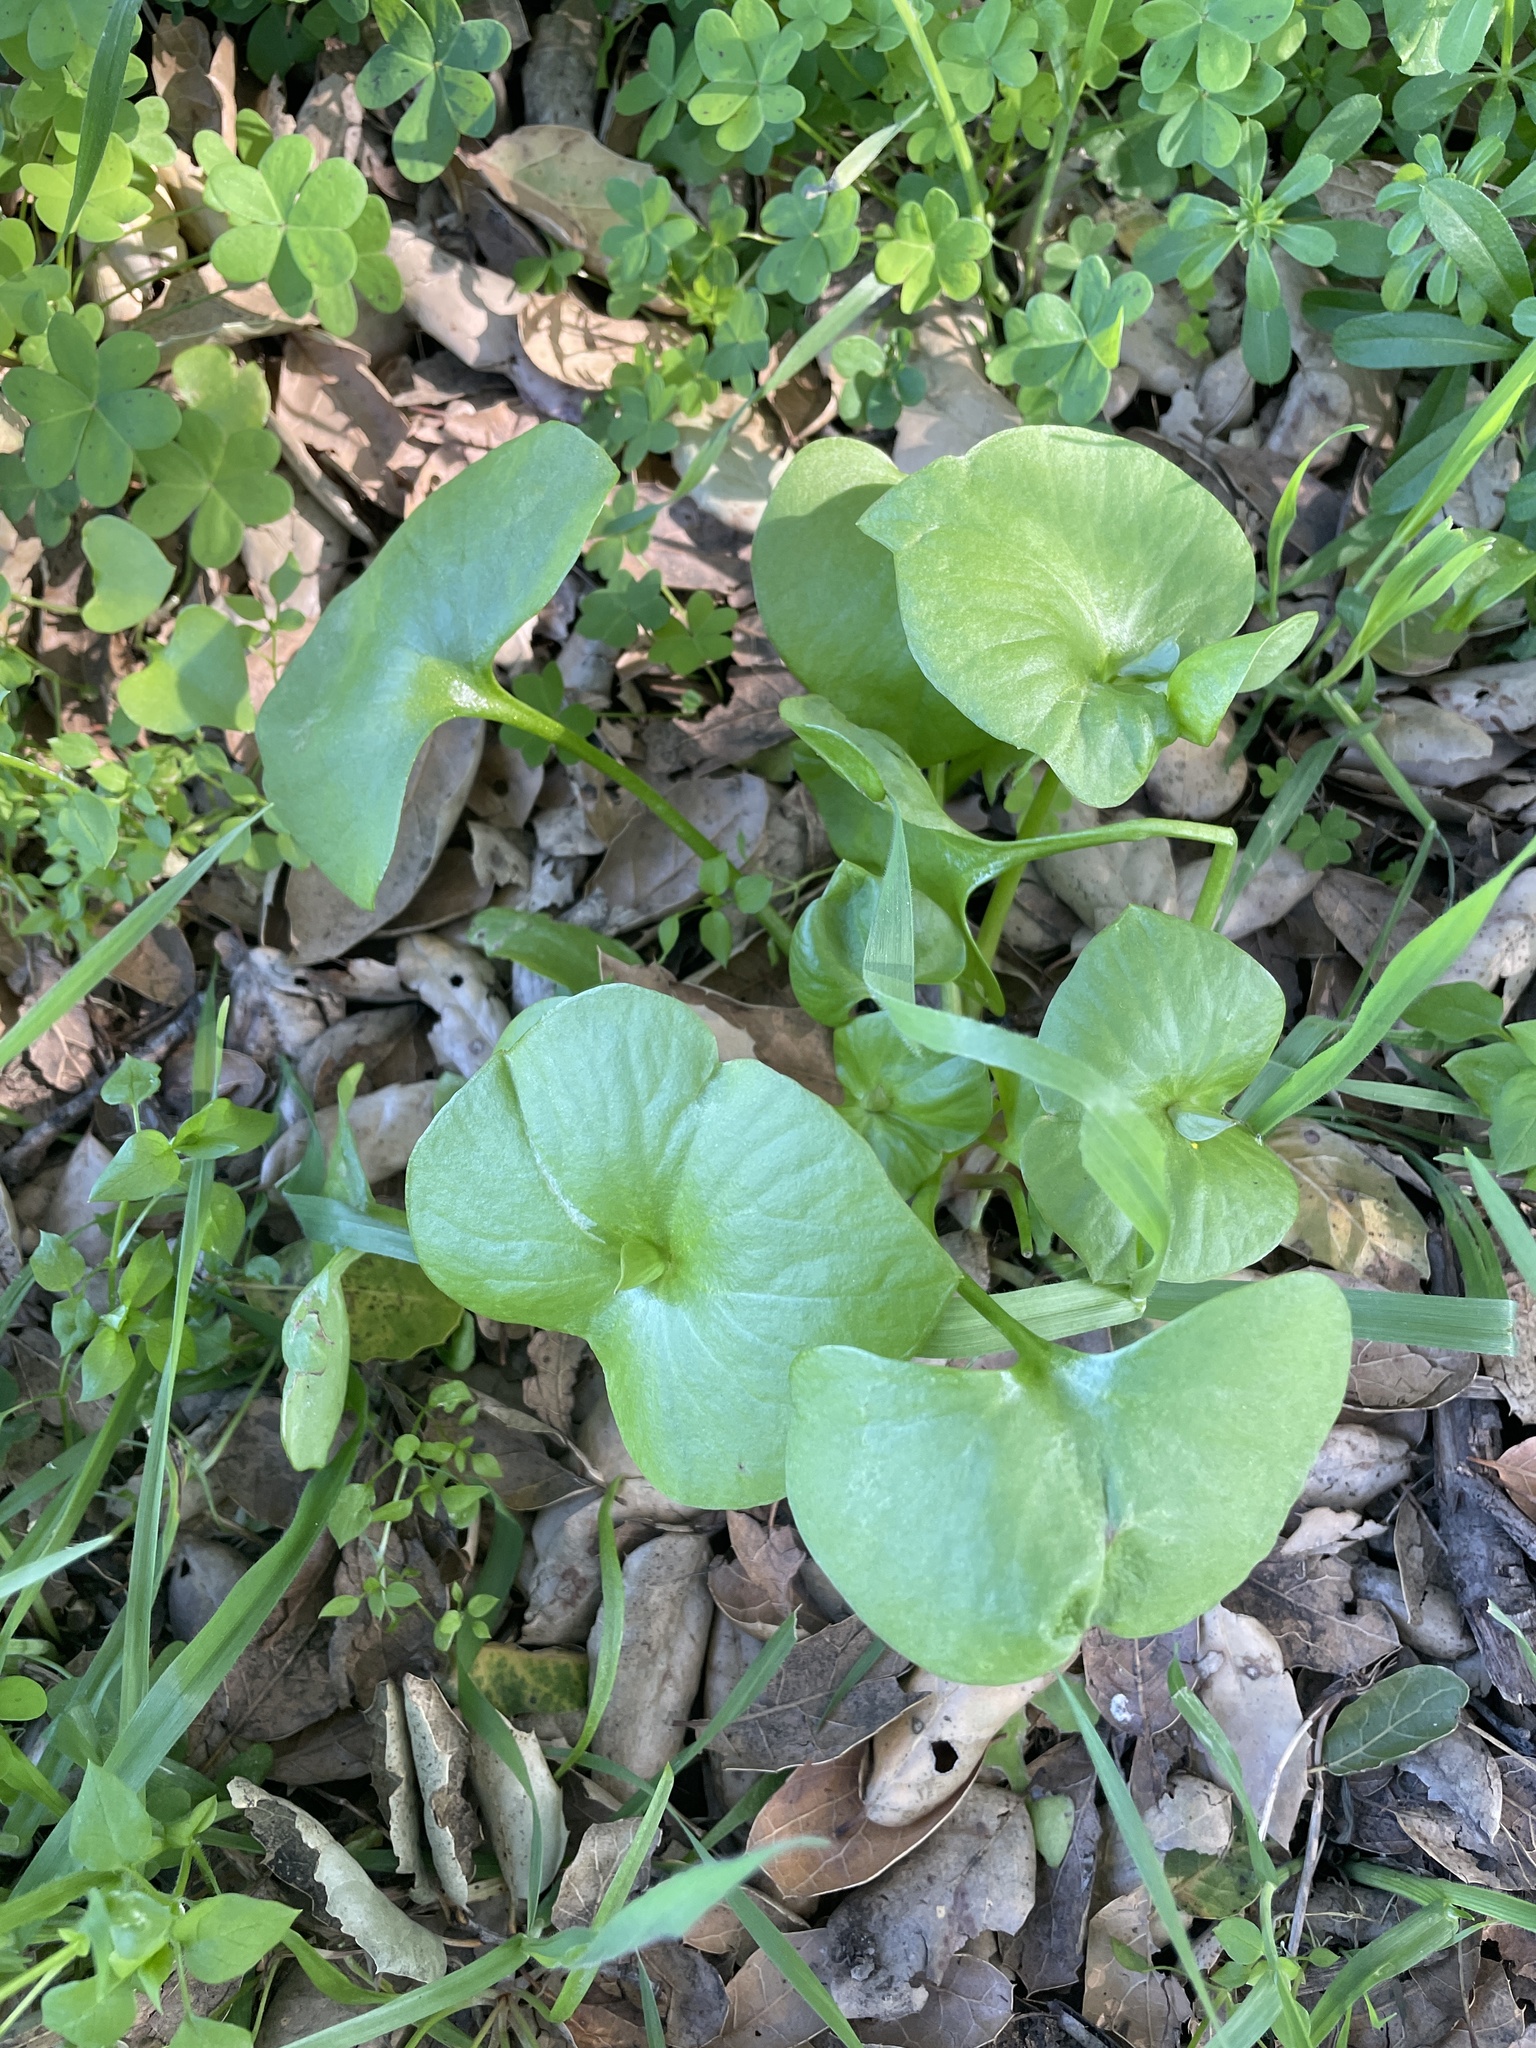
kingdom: Plantae
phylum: Tracheophyta
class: Magnoliopsida
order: Caryophyllales
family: Montiaceae
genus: Claytonia
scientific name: Claytonia perfoliata
